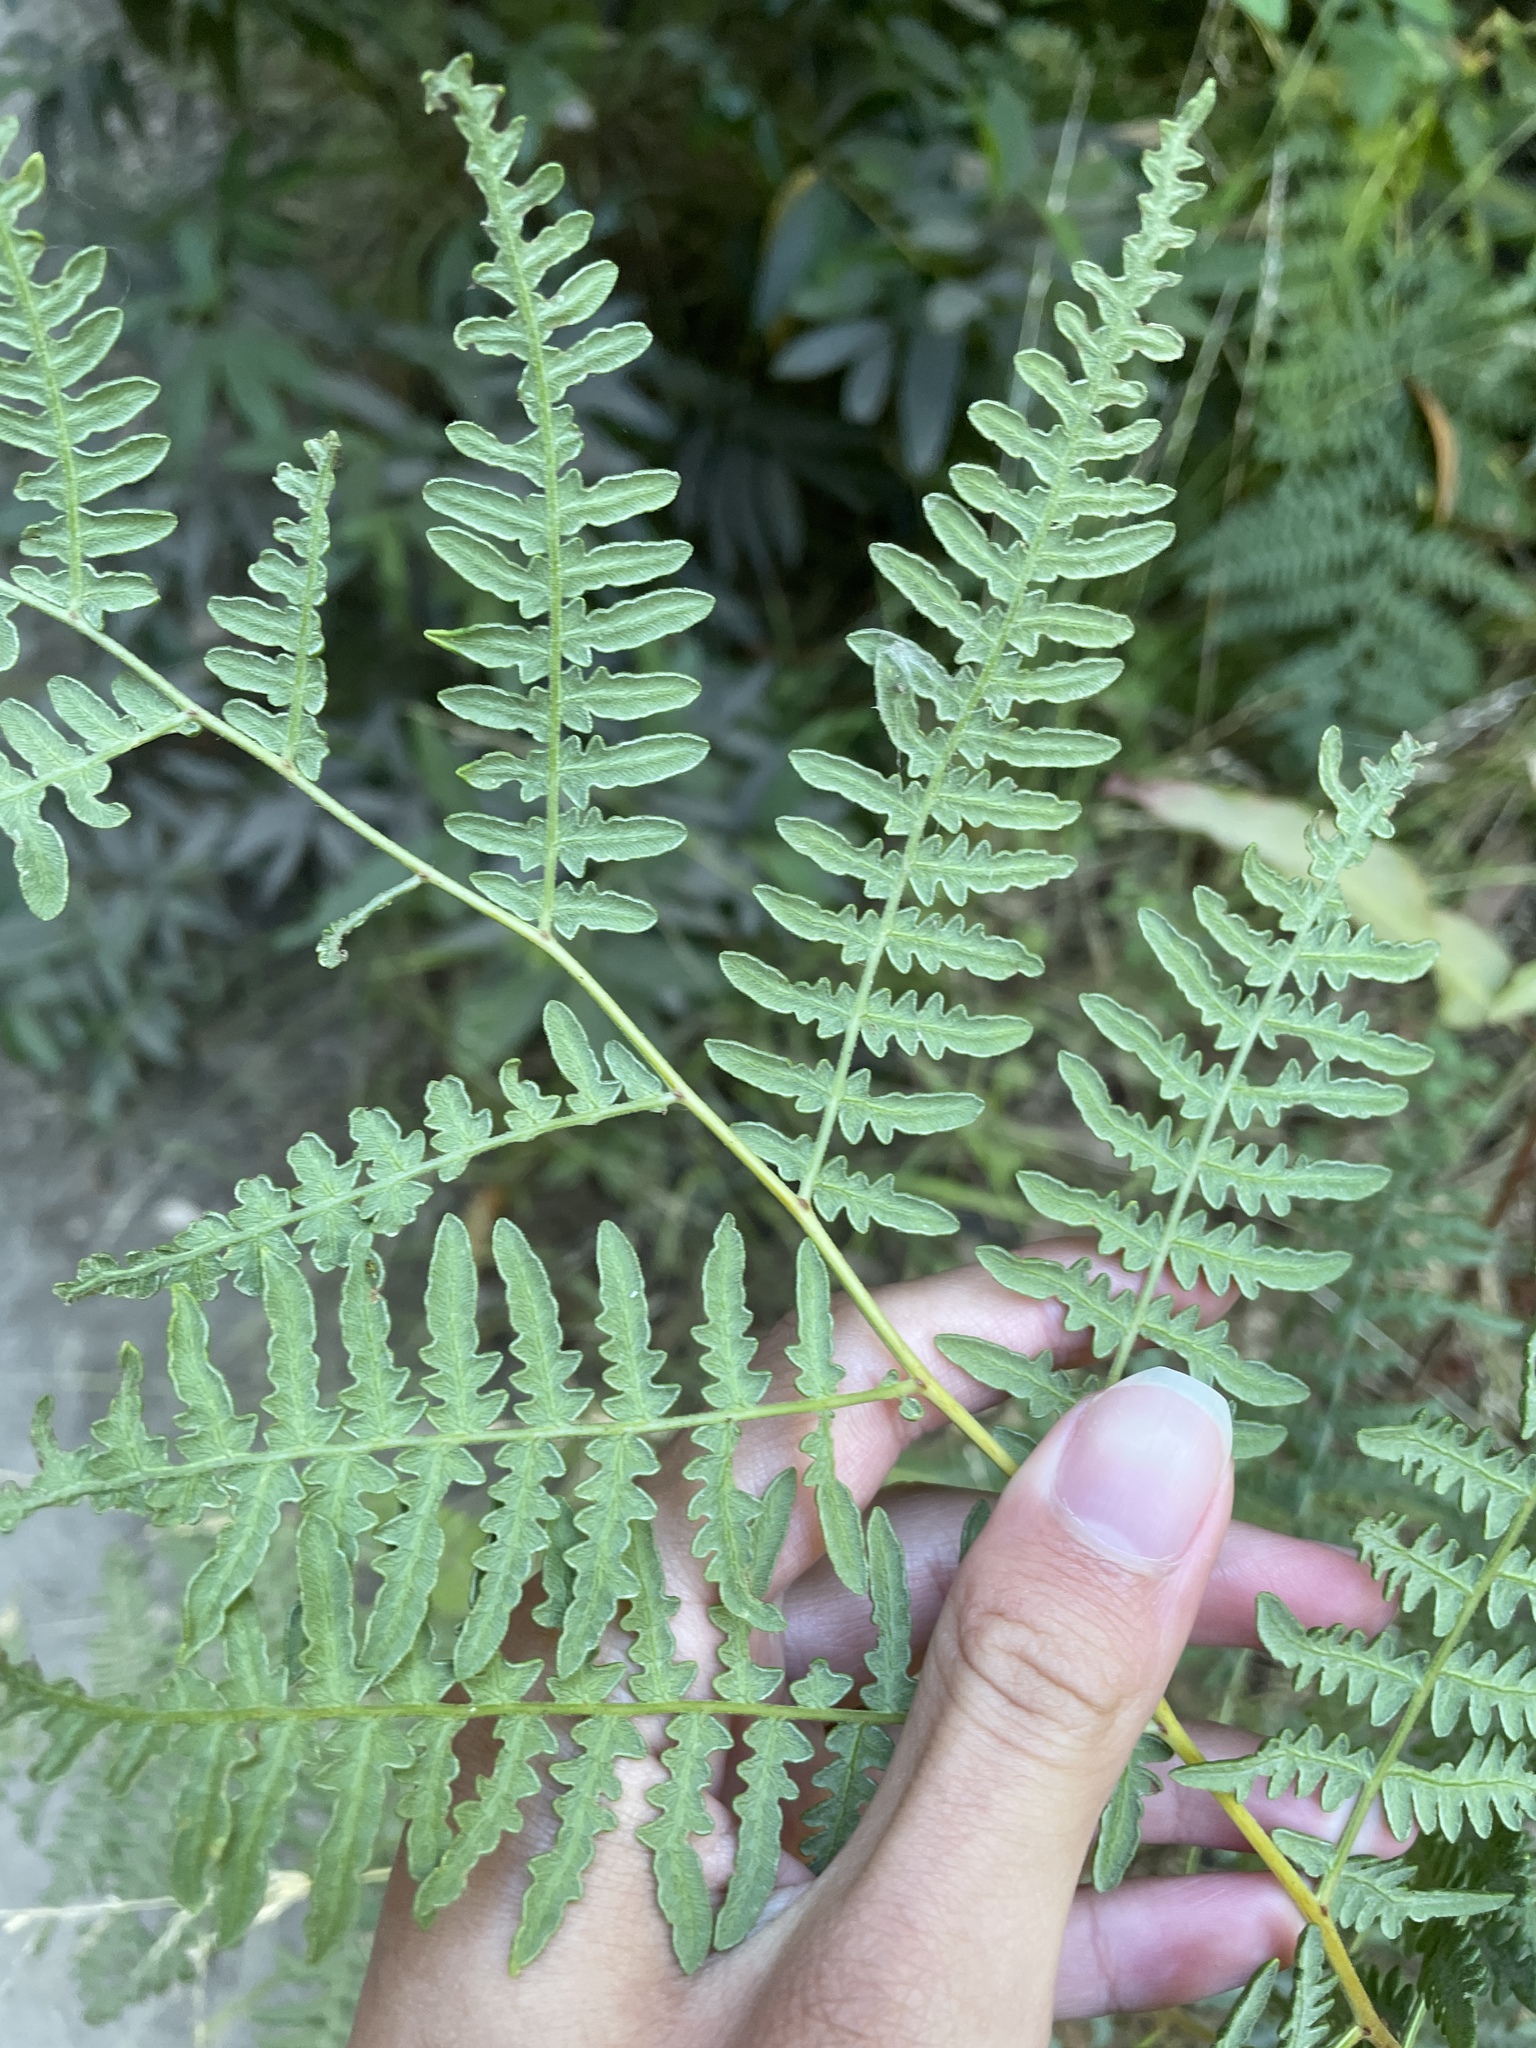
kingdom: Plantae
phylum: Tracheophyta
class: Polypodiopsida
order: Polypodiales
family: Dennstaedtiaceae
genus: Pteridium
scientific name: Pteridium aquilinum
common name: Bracken
